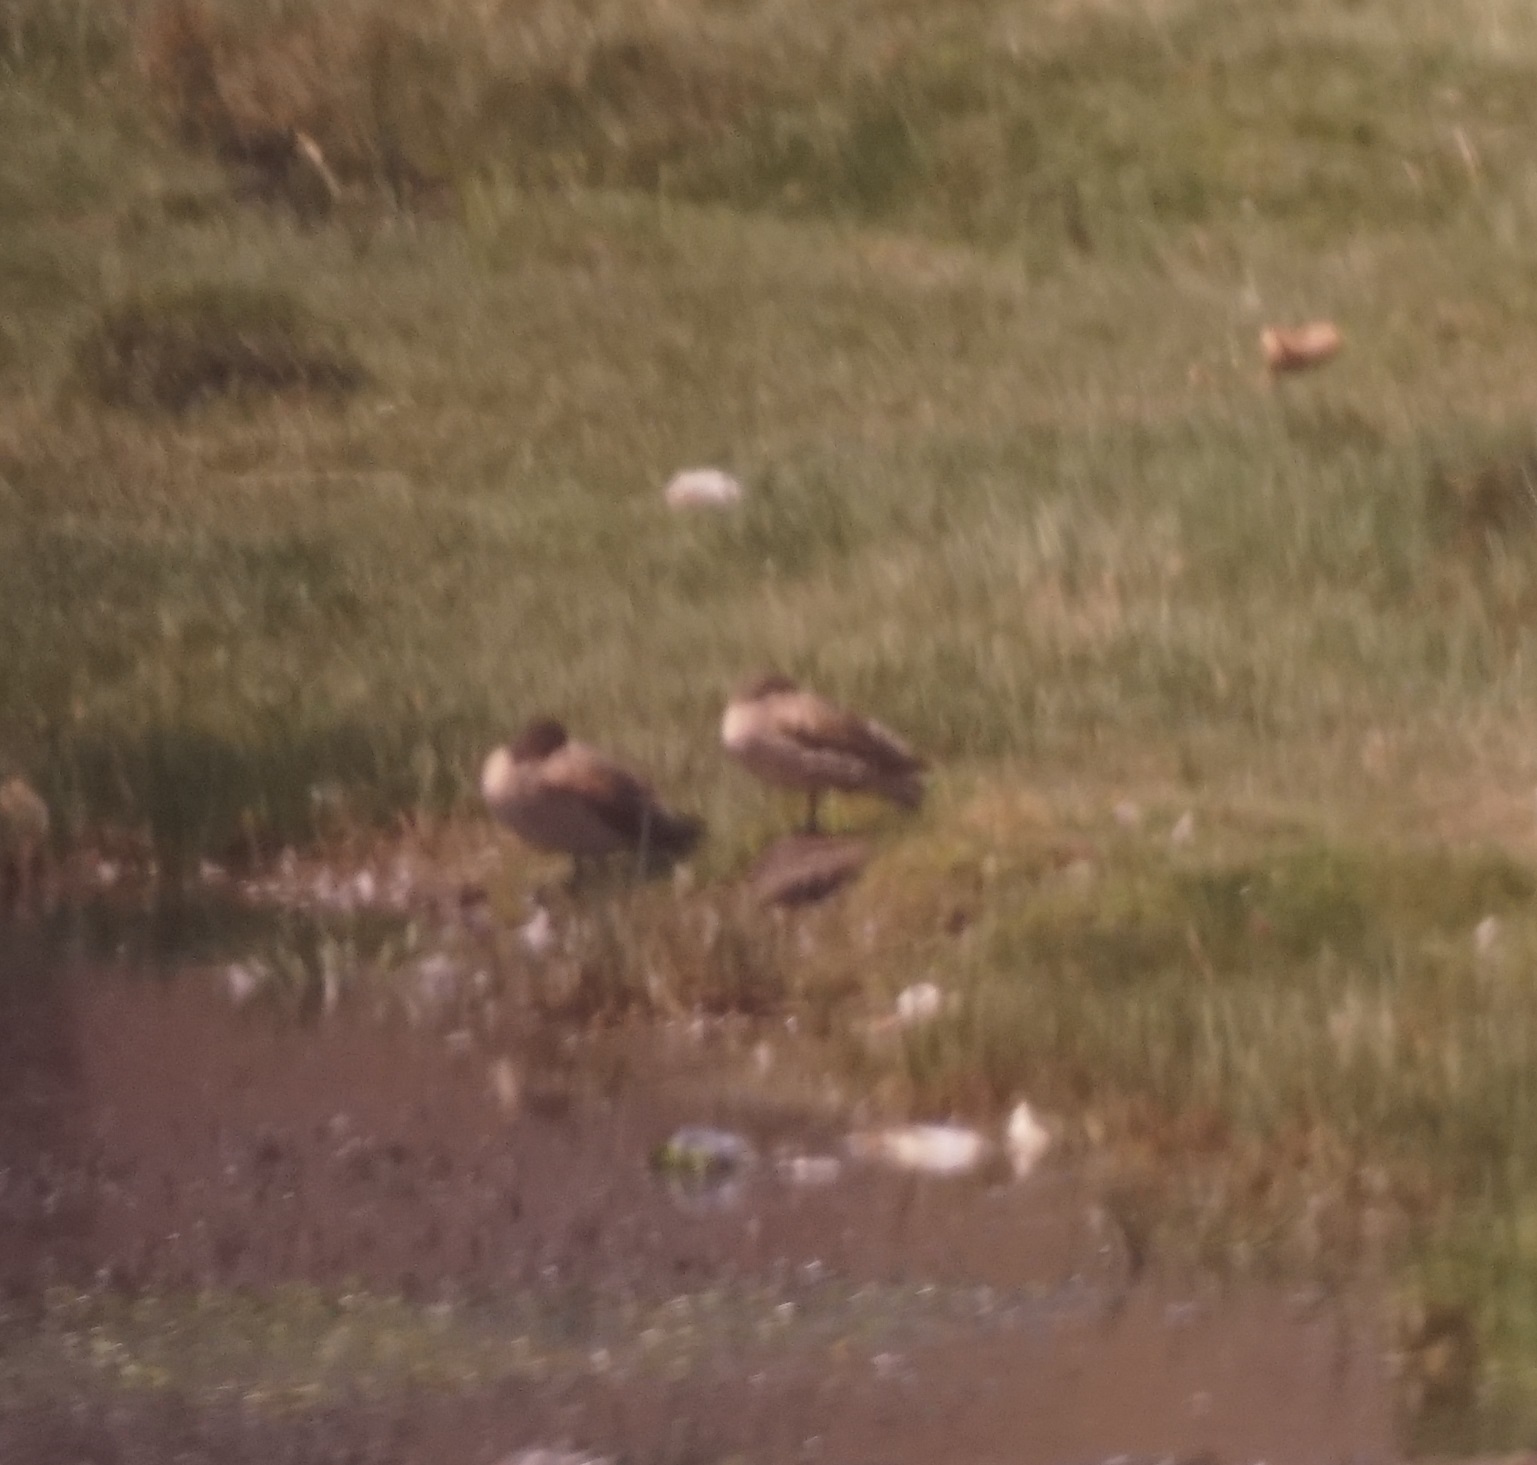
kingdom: Animalia
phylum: Chordata
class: Aves
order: Anseriformes
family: Anatidae
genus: Anas
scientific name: Anas flavirostris
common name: Yellow-billed teal
